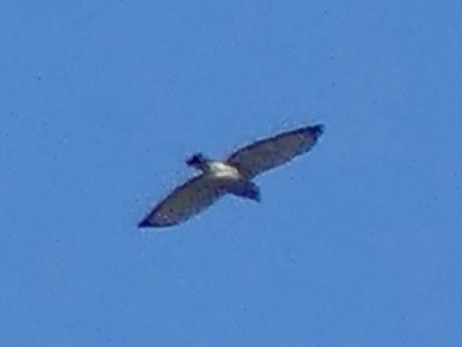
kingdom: Animalia
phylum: Chordata
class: Aves
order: Accipitriformes
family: Accipitridae
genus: Buteo
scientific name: Buteo platypterus
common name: Broad-winged hawk
